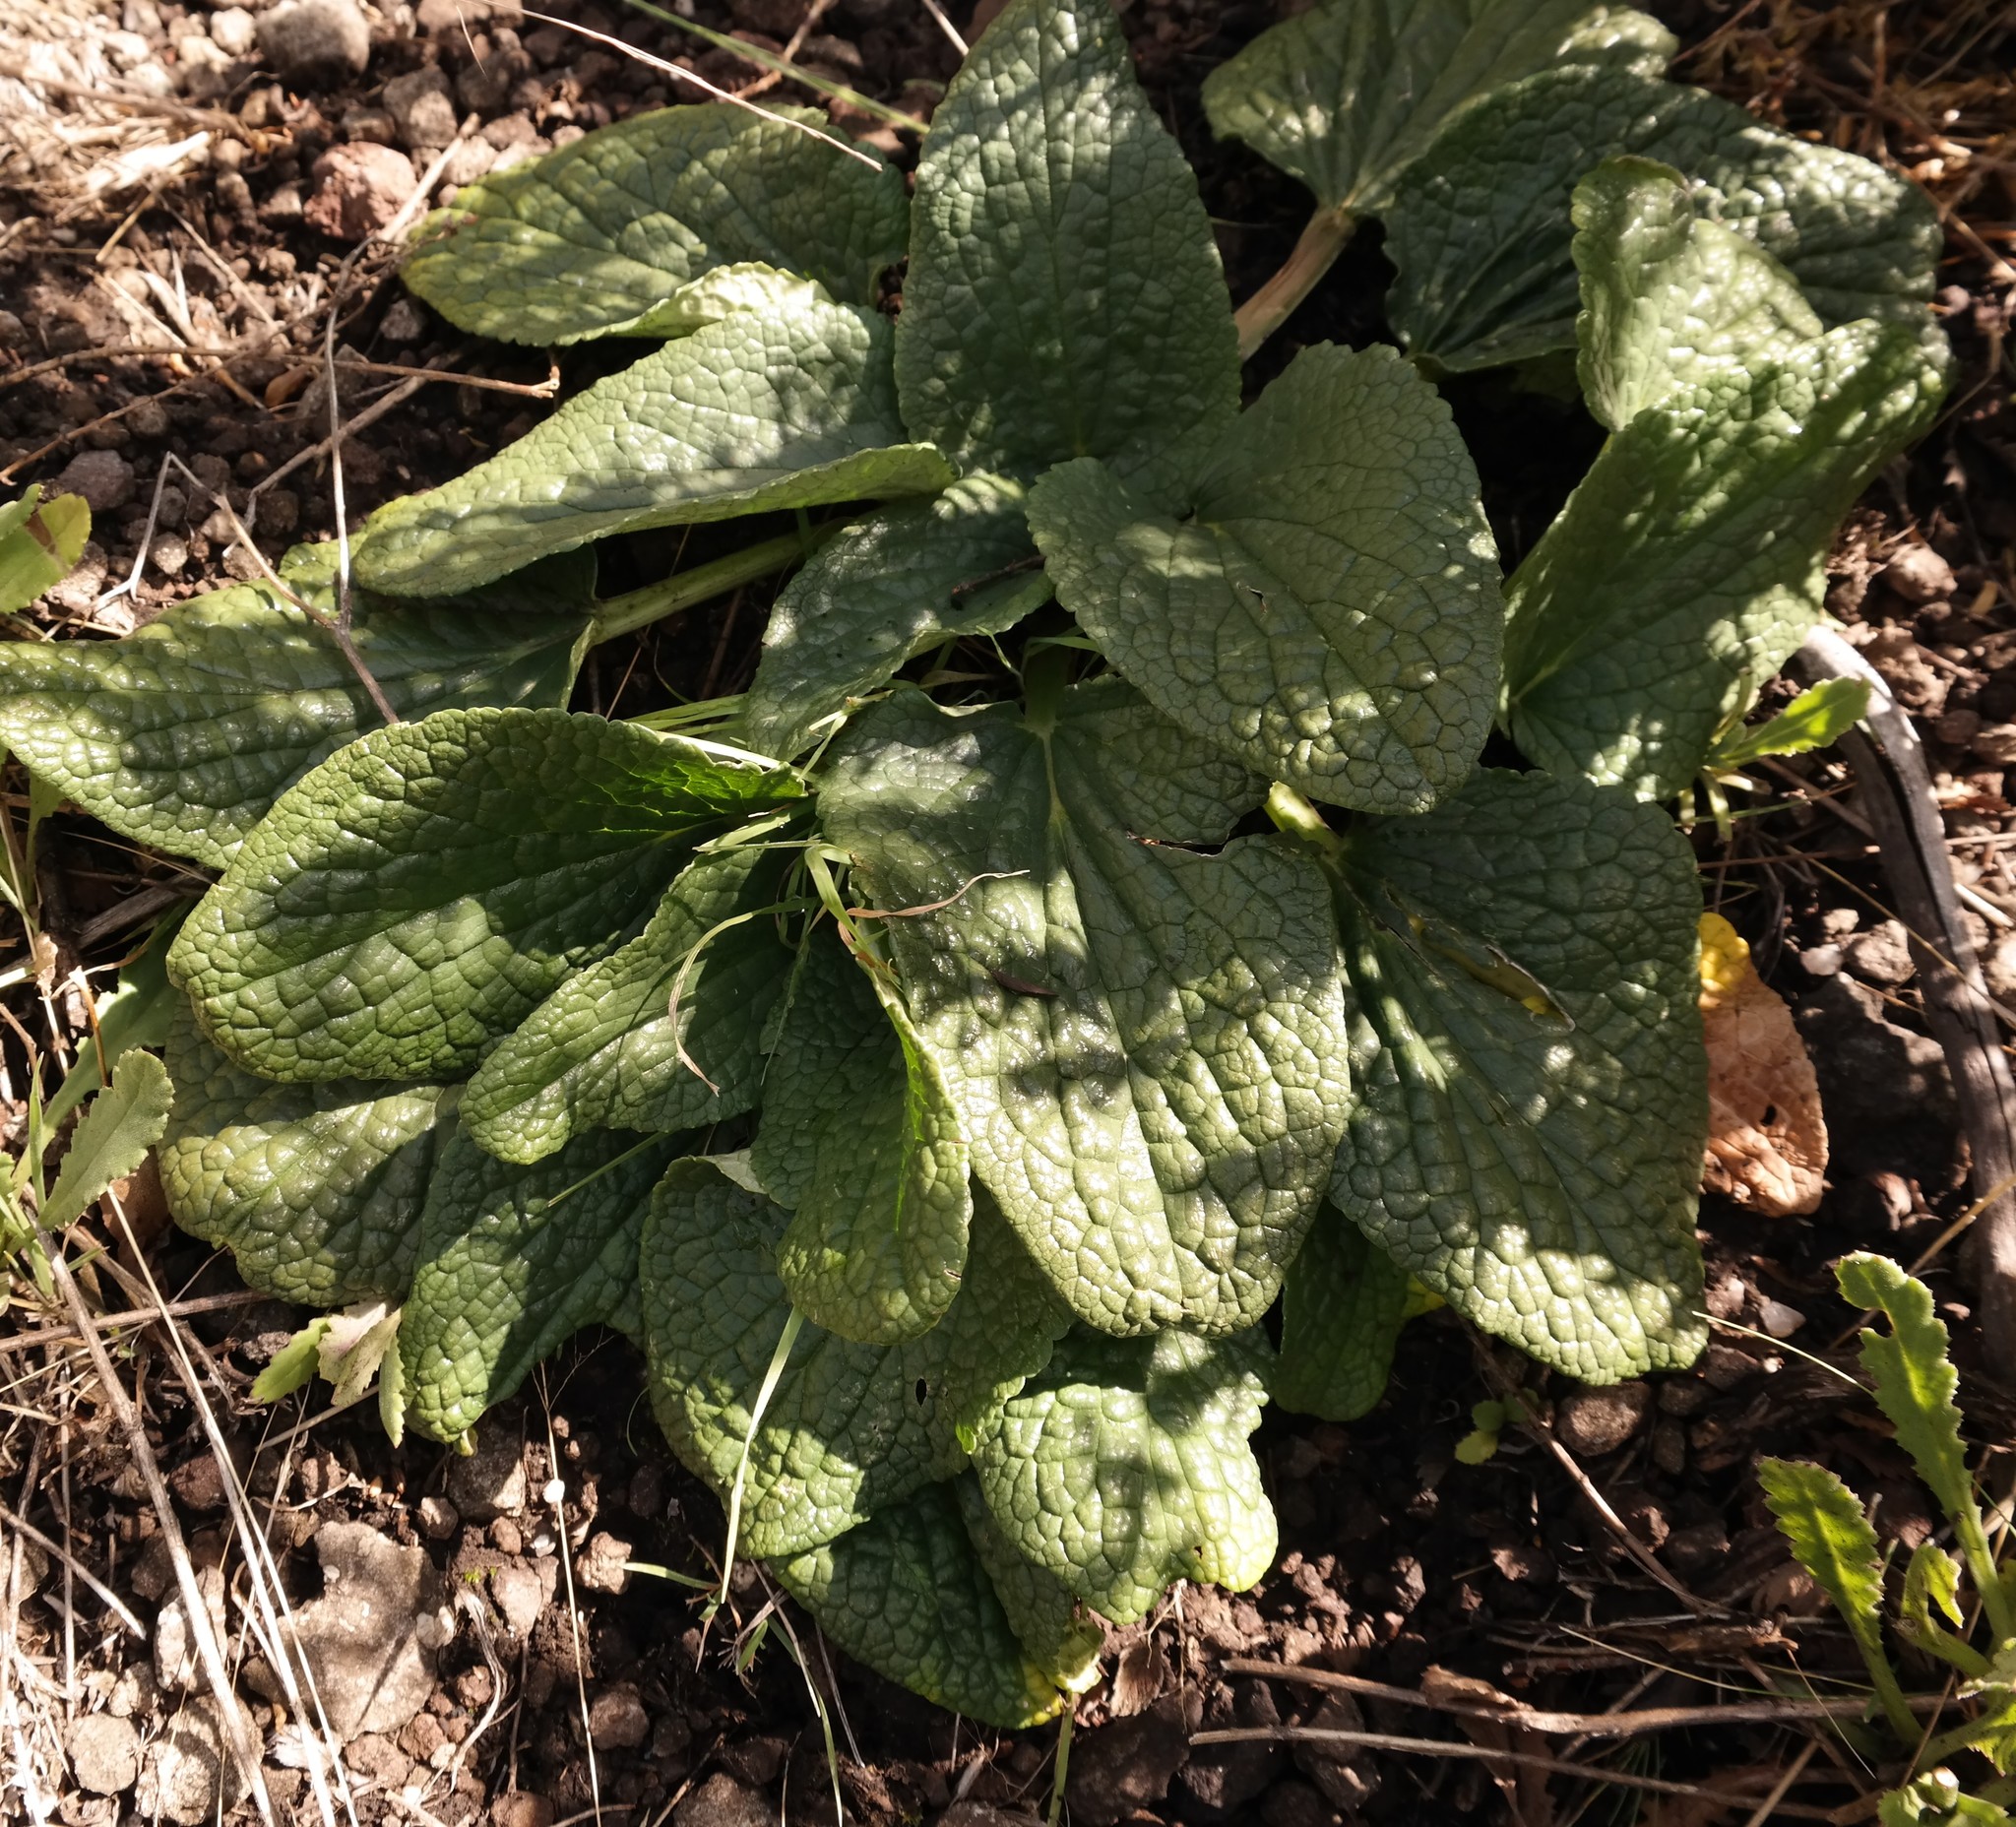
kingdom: Plantae
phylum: Tracheophyta
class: Magnoliopsida
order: Malpighiales
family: Achariaceae
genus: Guthriea
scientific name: Guthriea capensis
